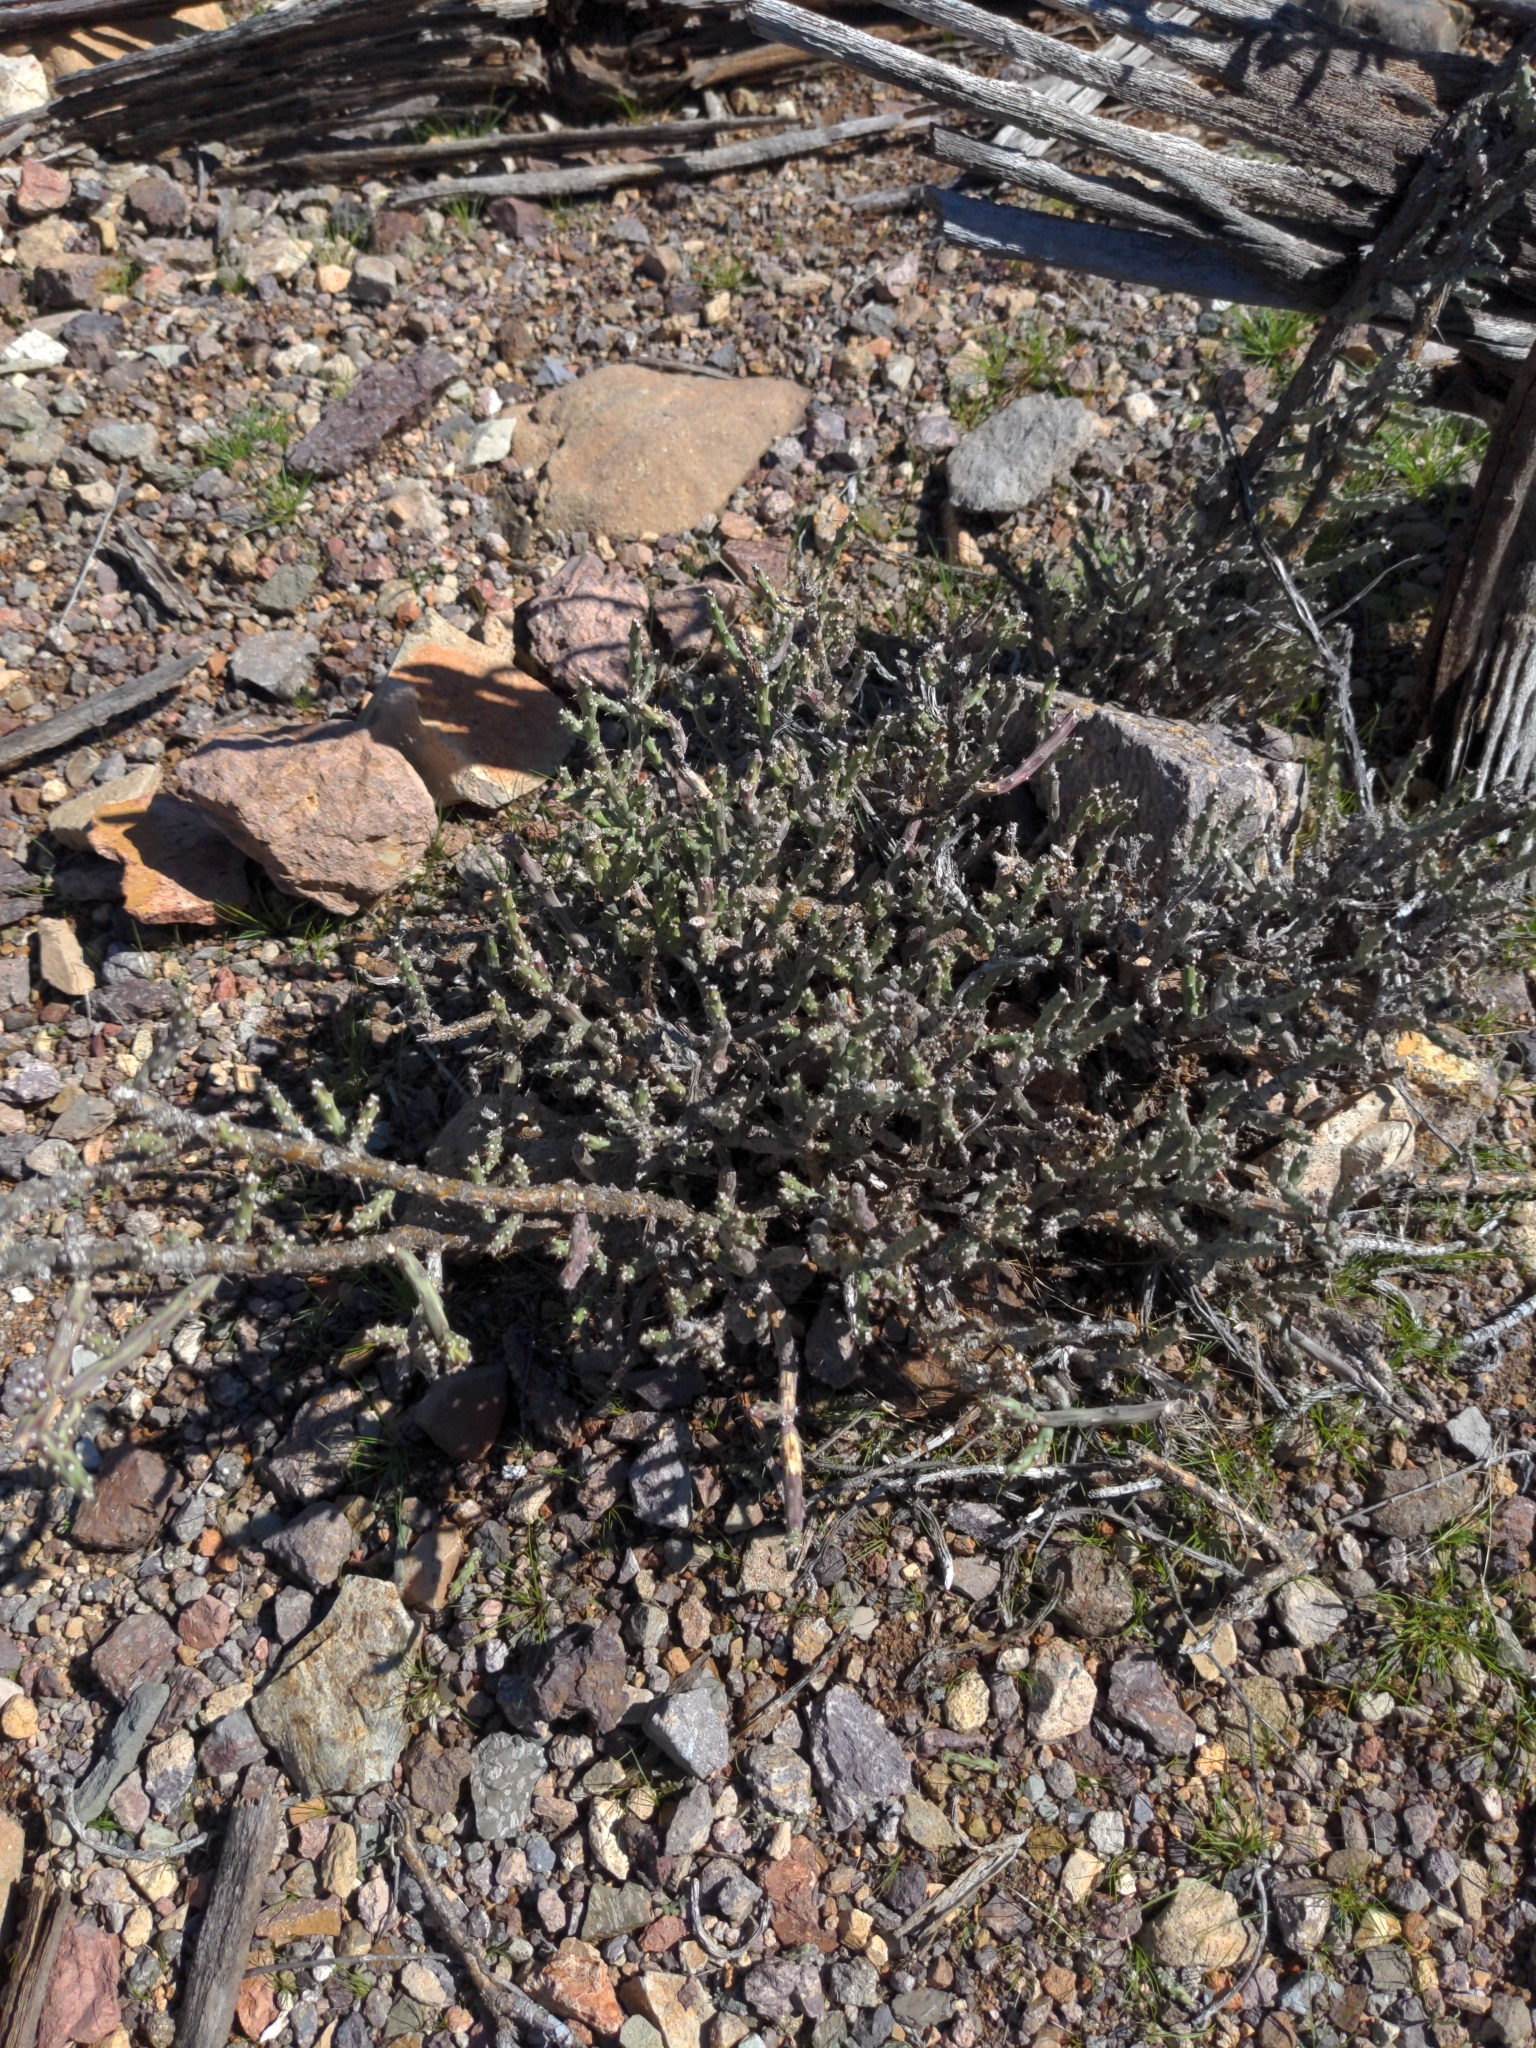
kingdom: Plantae
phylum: Tracheophyta
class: Magnoliopsida
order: Caryophyllales
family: Cactaceae
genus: Cylindropuntia
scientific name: Cylindropuntia leptocaulis
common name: Christmas cactus
